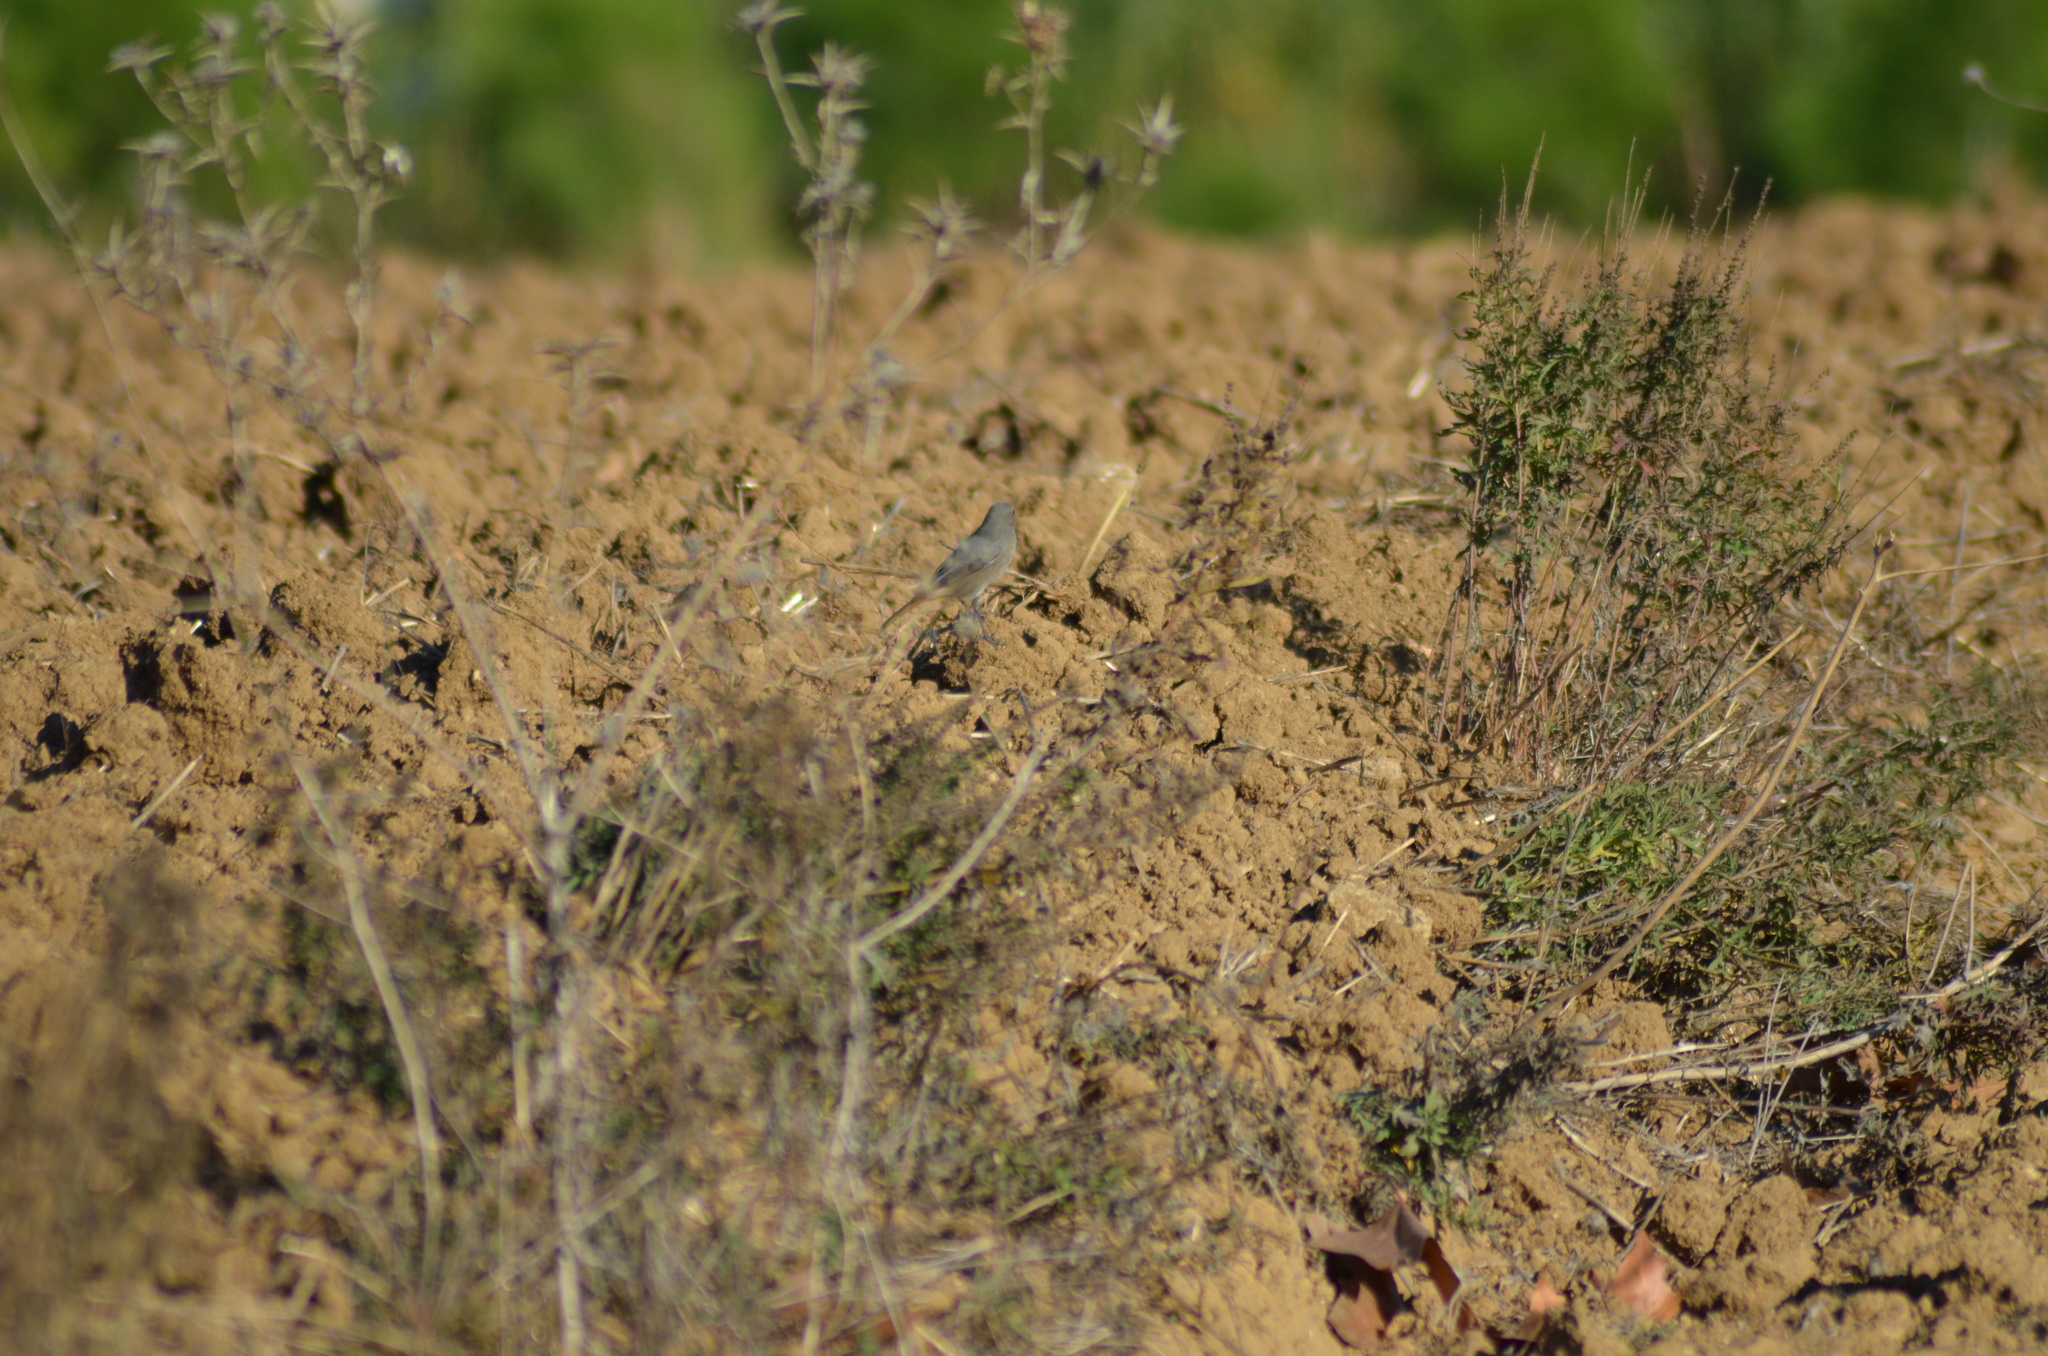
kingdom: Animalia
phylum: Chordata
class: Aves
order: Passeriformes
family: Muscicapidae
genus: Phoenicurus
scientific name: Phoenicurus ochruros
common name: Black redstart
